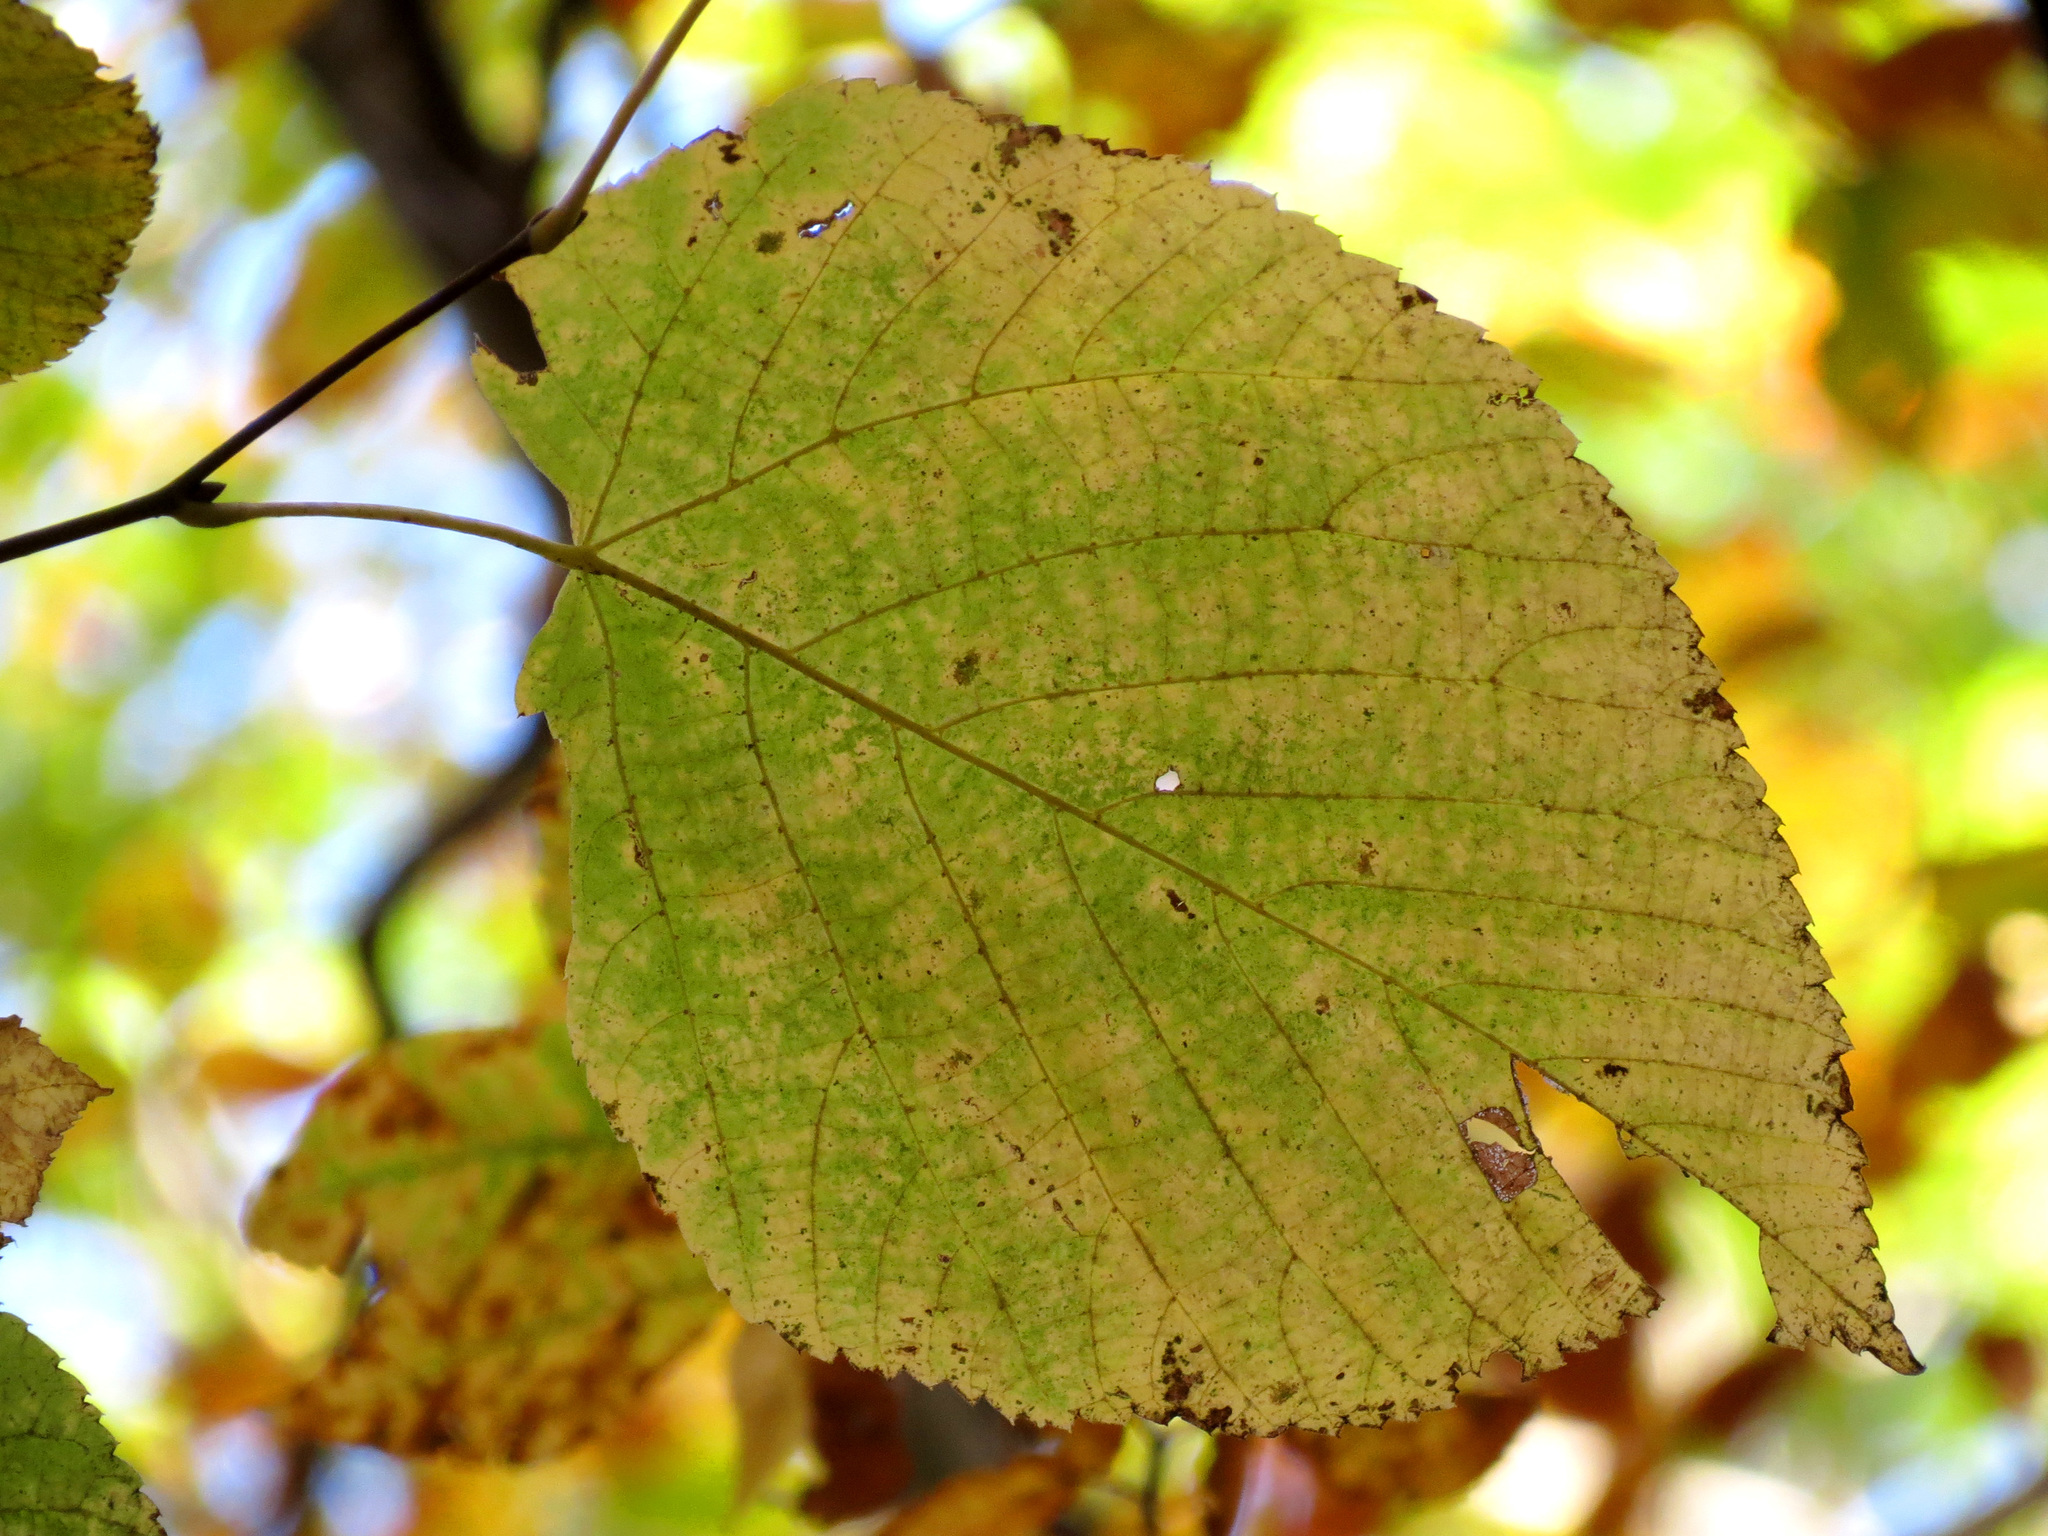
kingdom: Plantae
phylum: Tracheophyta
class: Magnoliopsida
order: Malvales
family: Malvaceae
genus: Tilia
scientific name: Tilia americana
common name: Basswood
